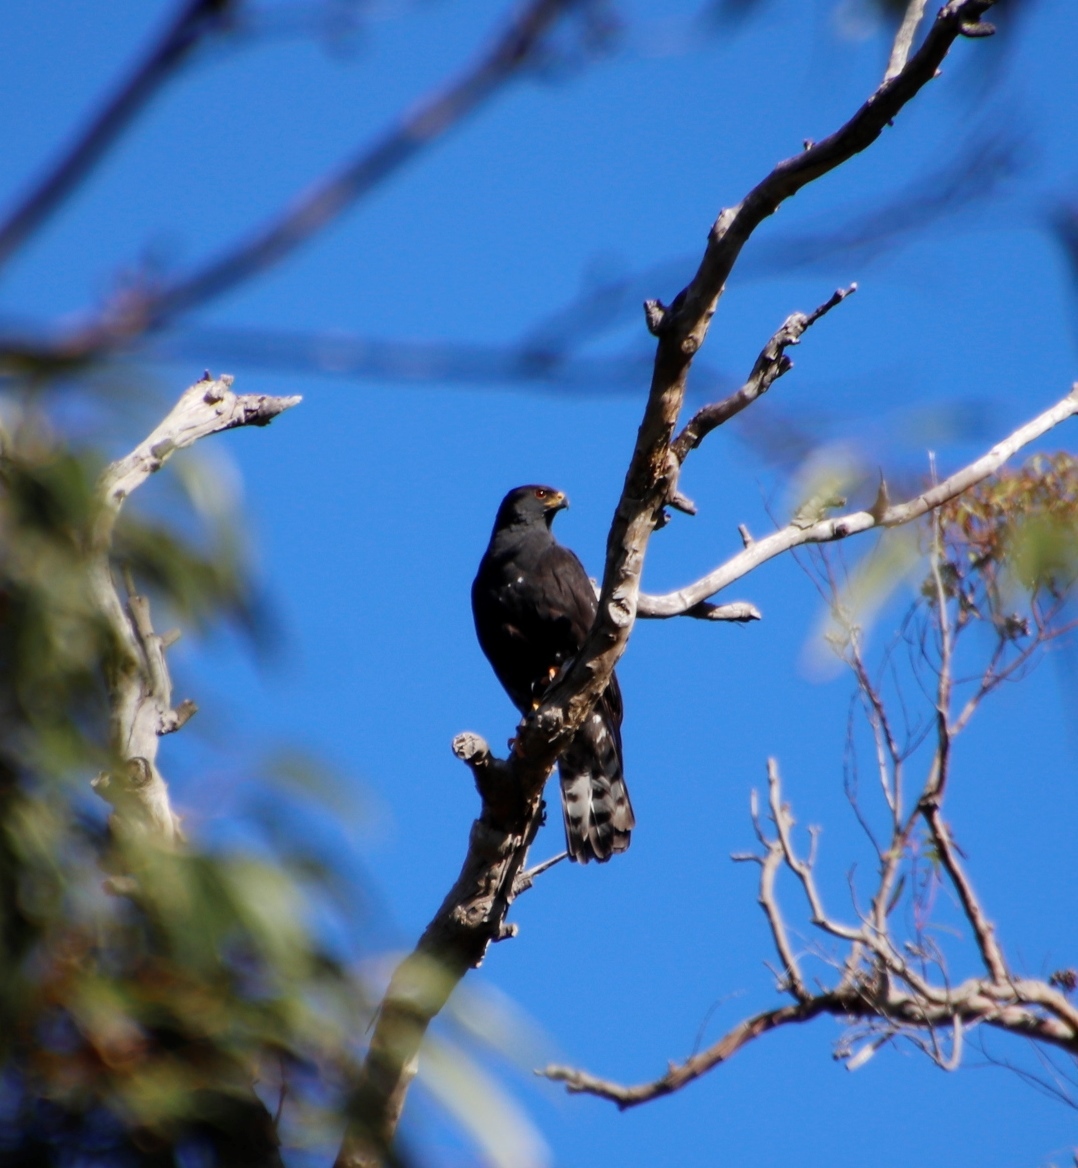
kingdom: Animalia
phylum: Chordata
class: Aves
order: Accipitriformes
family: Accipitridae
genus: Accipiter
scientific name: Accipiter melanoleucus
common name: Black sparrowhawk
